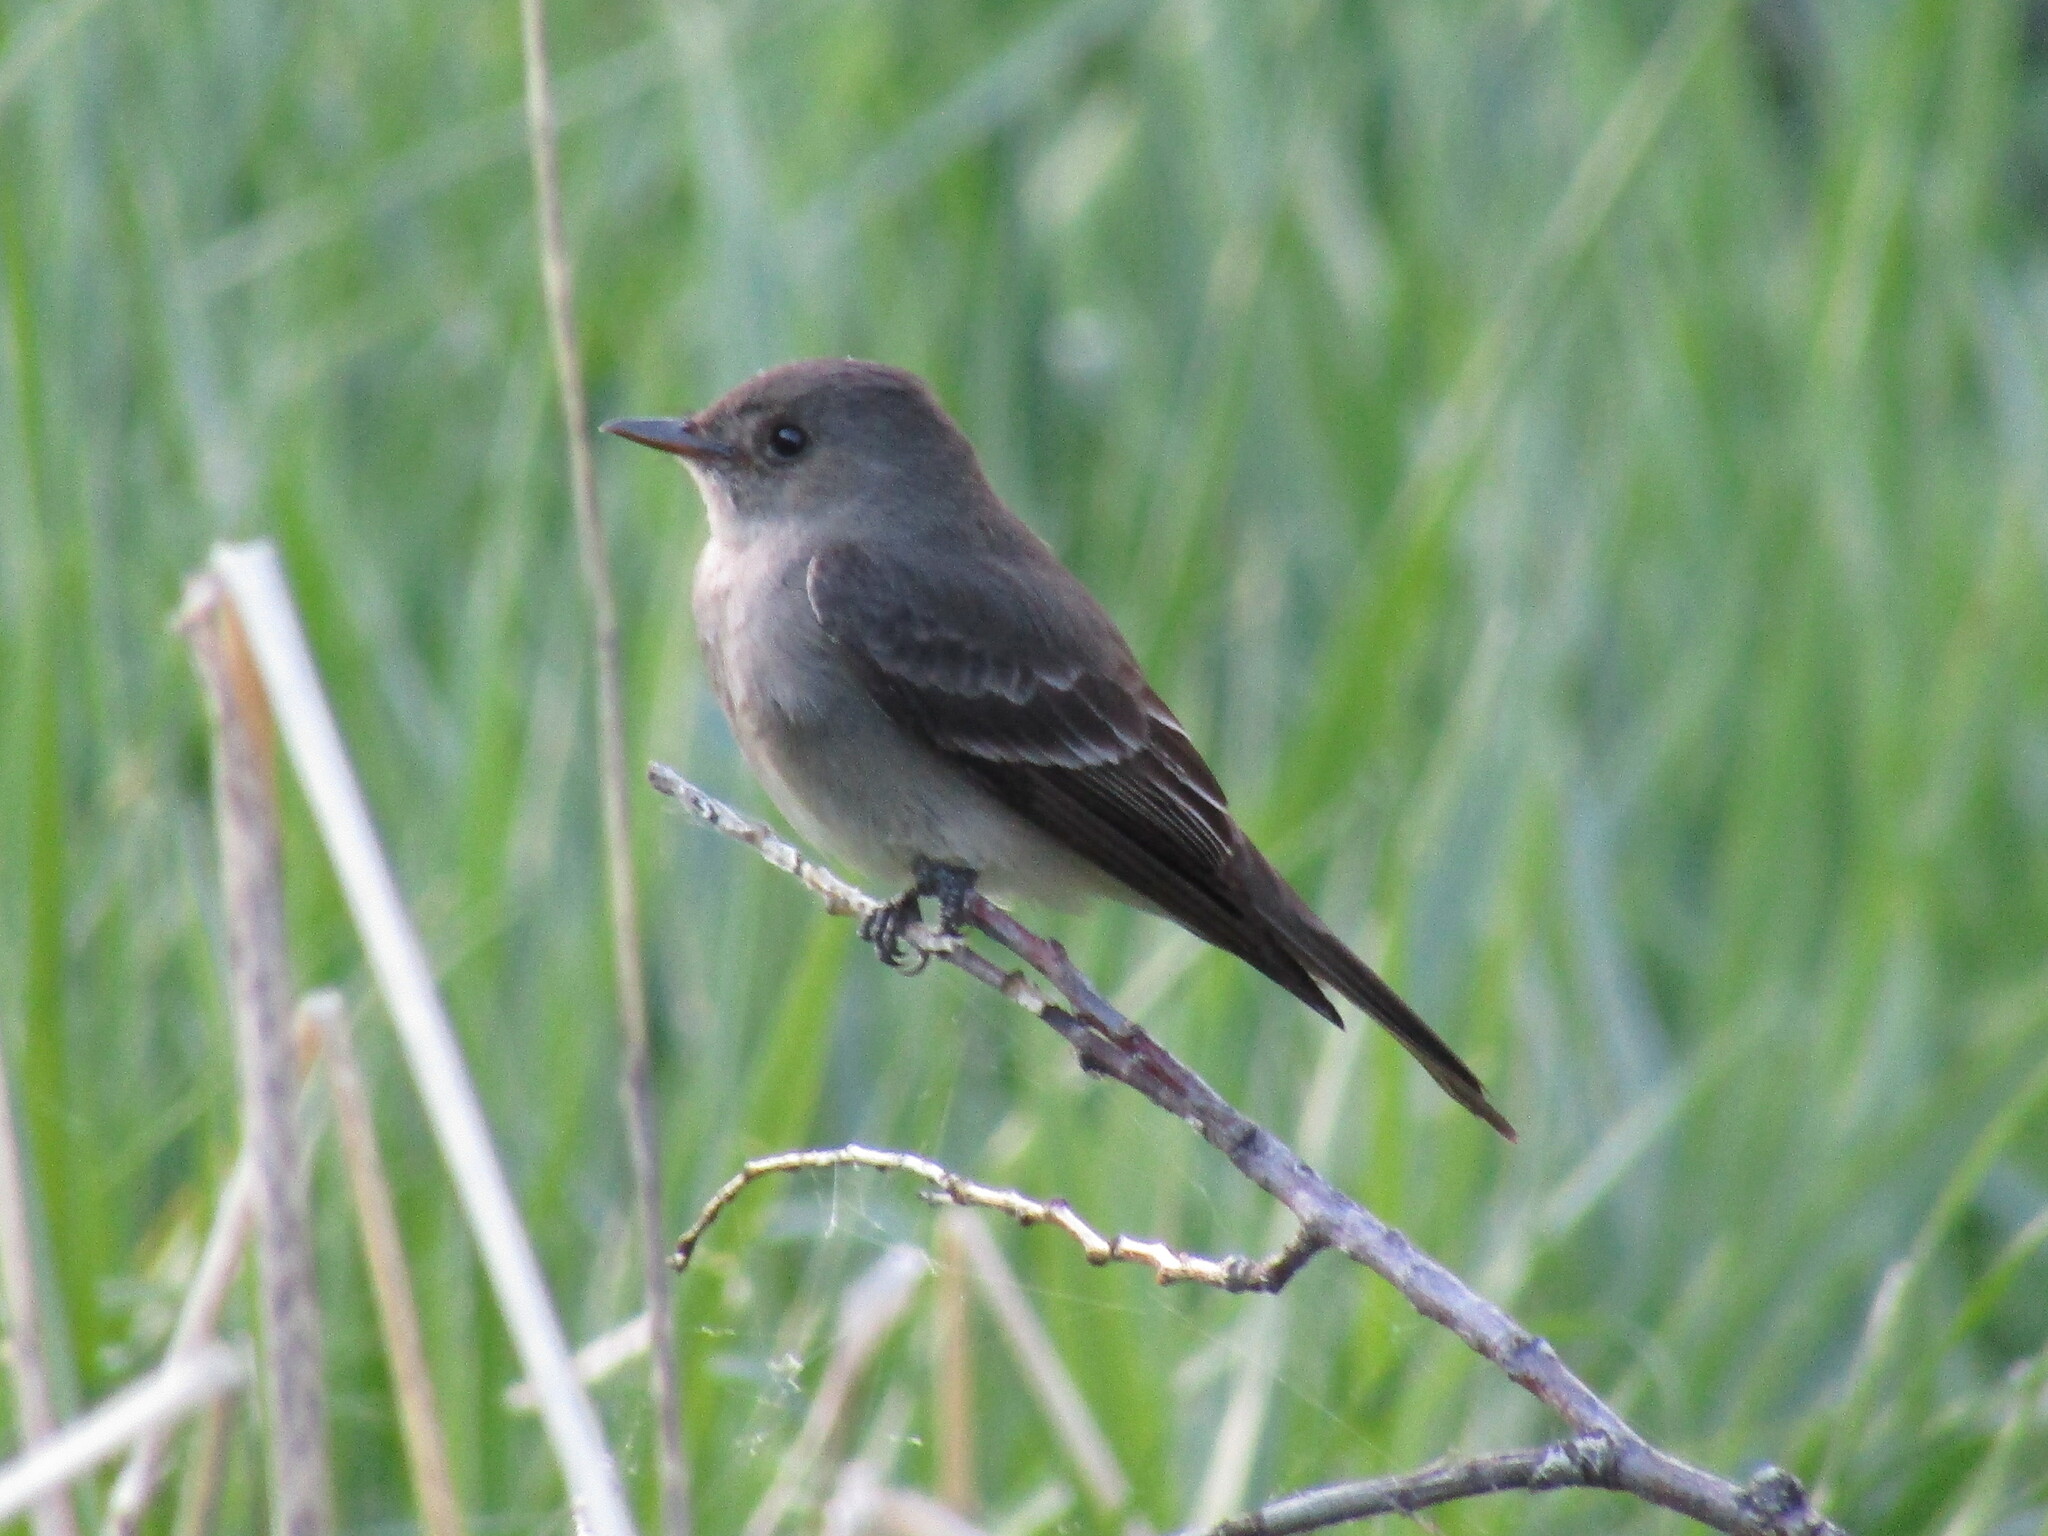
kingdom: Animalia
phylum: Chordata
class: Aves
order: Passeriformes
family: Tyrannidae
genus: Contopus
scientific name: Contopus sordidulus
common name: Western wood-pewee
